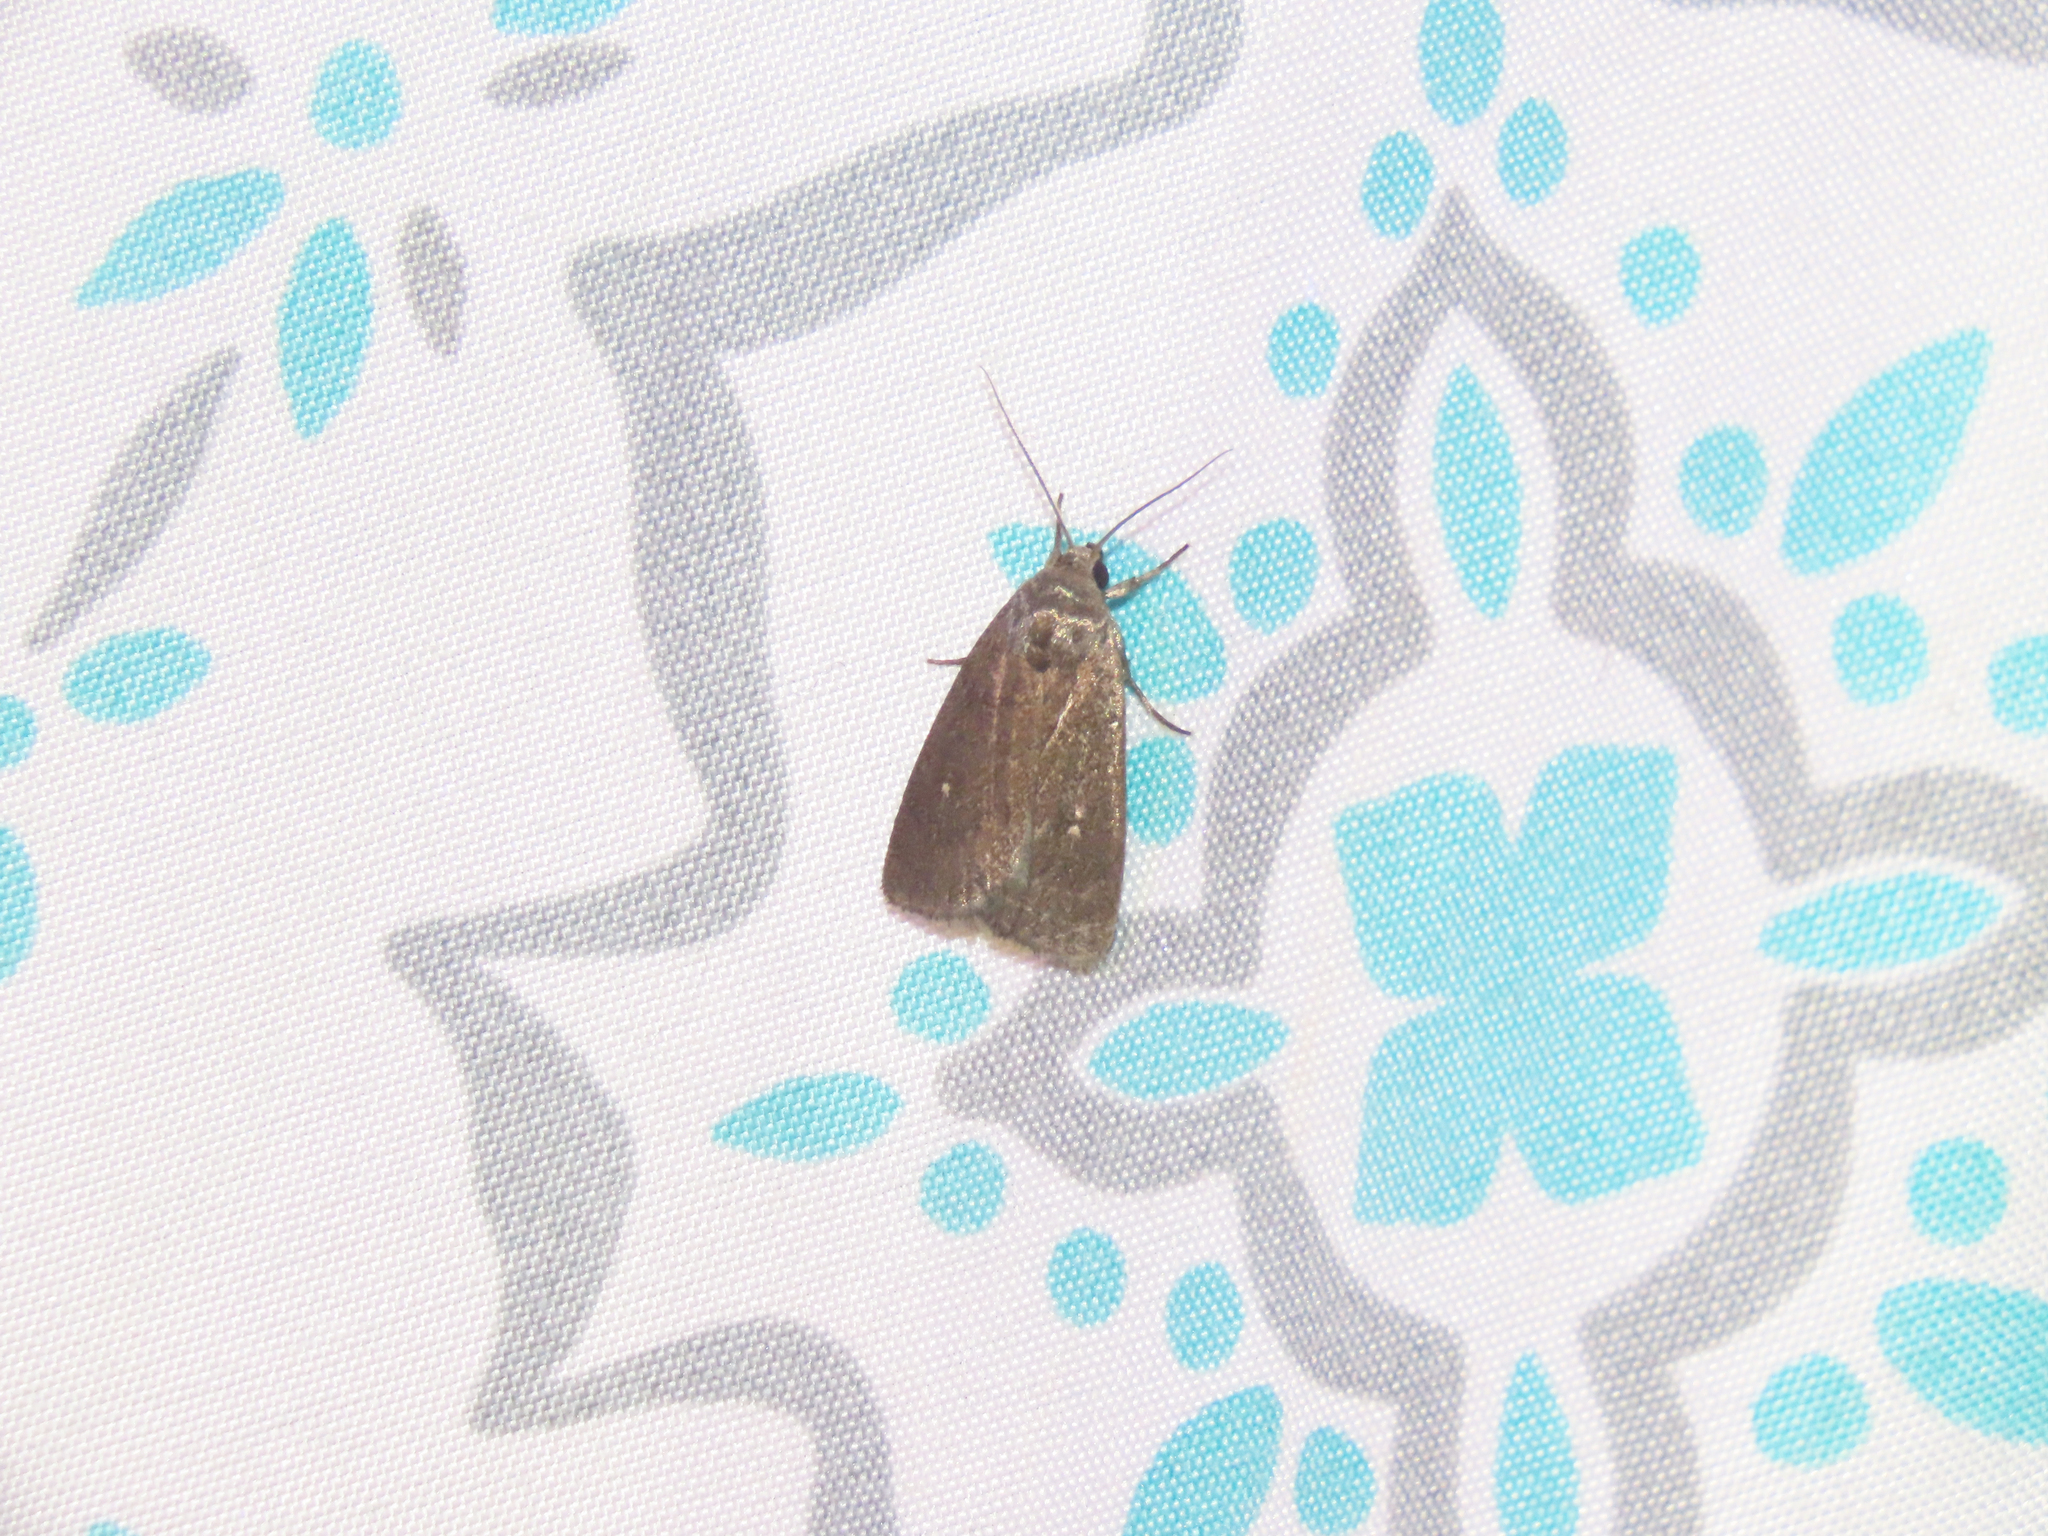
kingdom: Animalia
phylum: Arthropoda
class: Insecta
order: Lepidoptera
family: Noctuidae
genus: Proxenus
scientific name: Proxenus miranda
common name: Miranda moth
